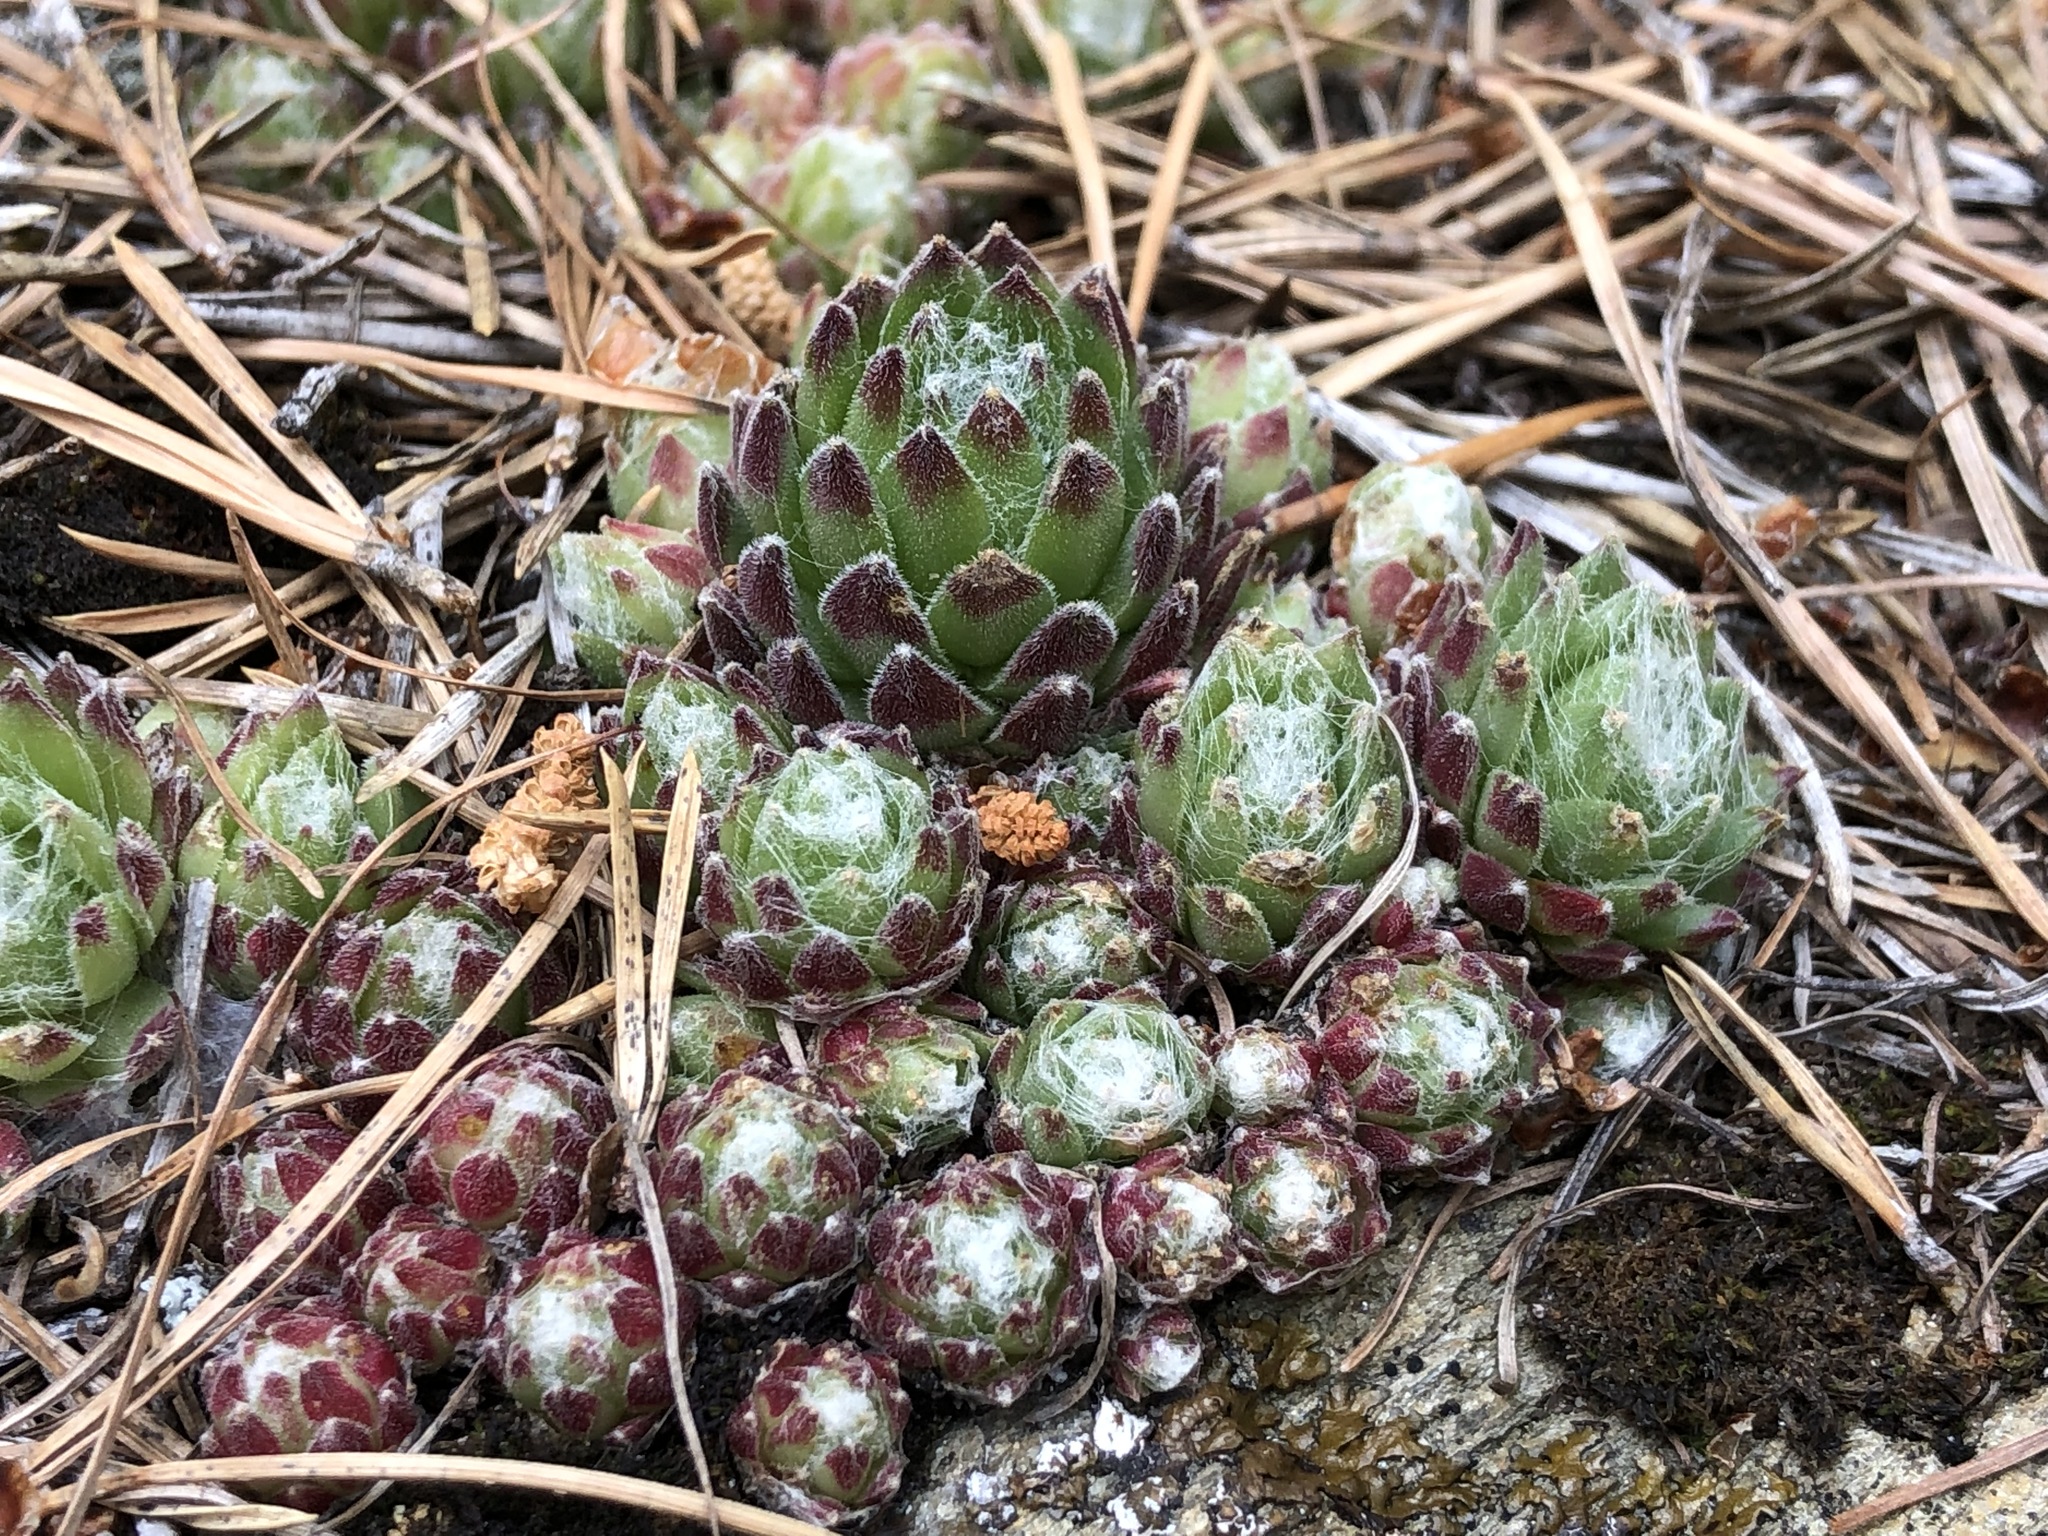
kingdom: Plantae
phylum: Tracheophyta
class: Magnoliopsida
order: Saxifragales
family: Crassulaceae
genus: Sempervivum
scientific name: Sempervivum arachnoideum
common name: Cobweb house-leek
